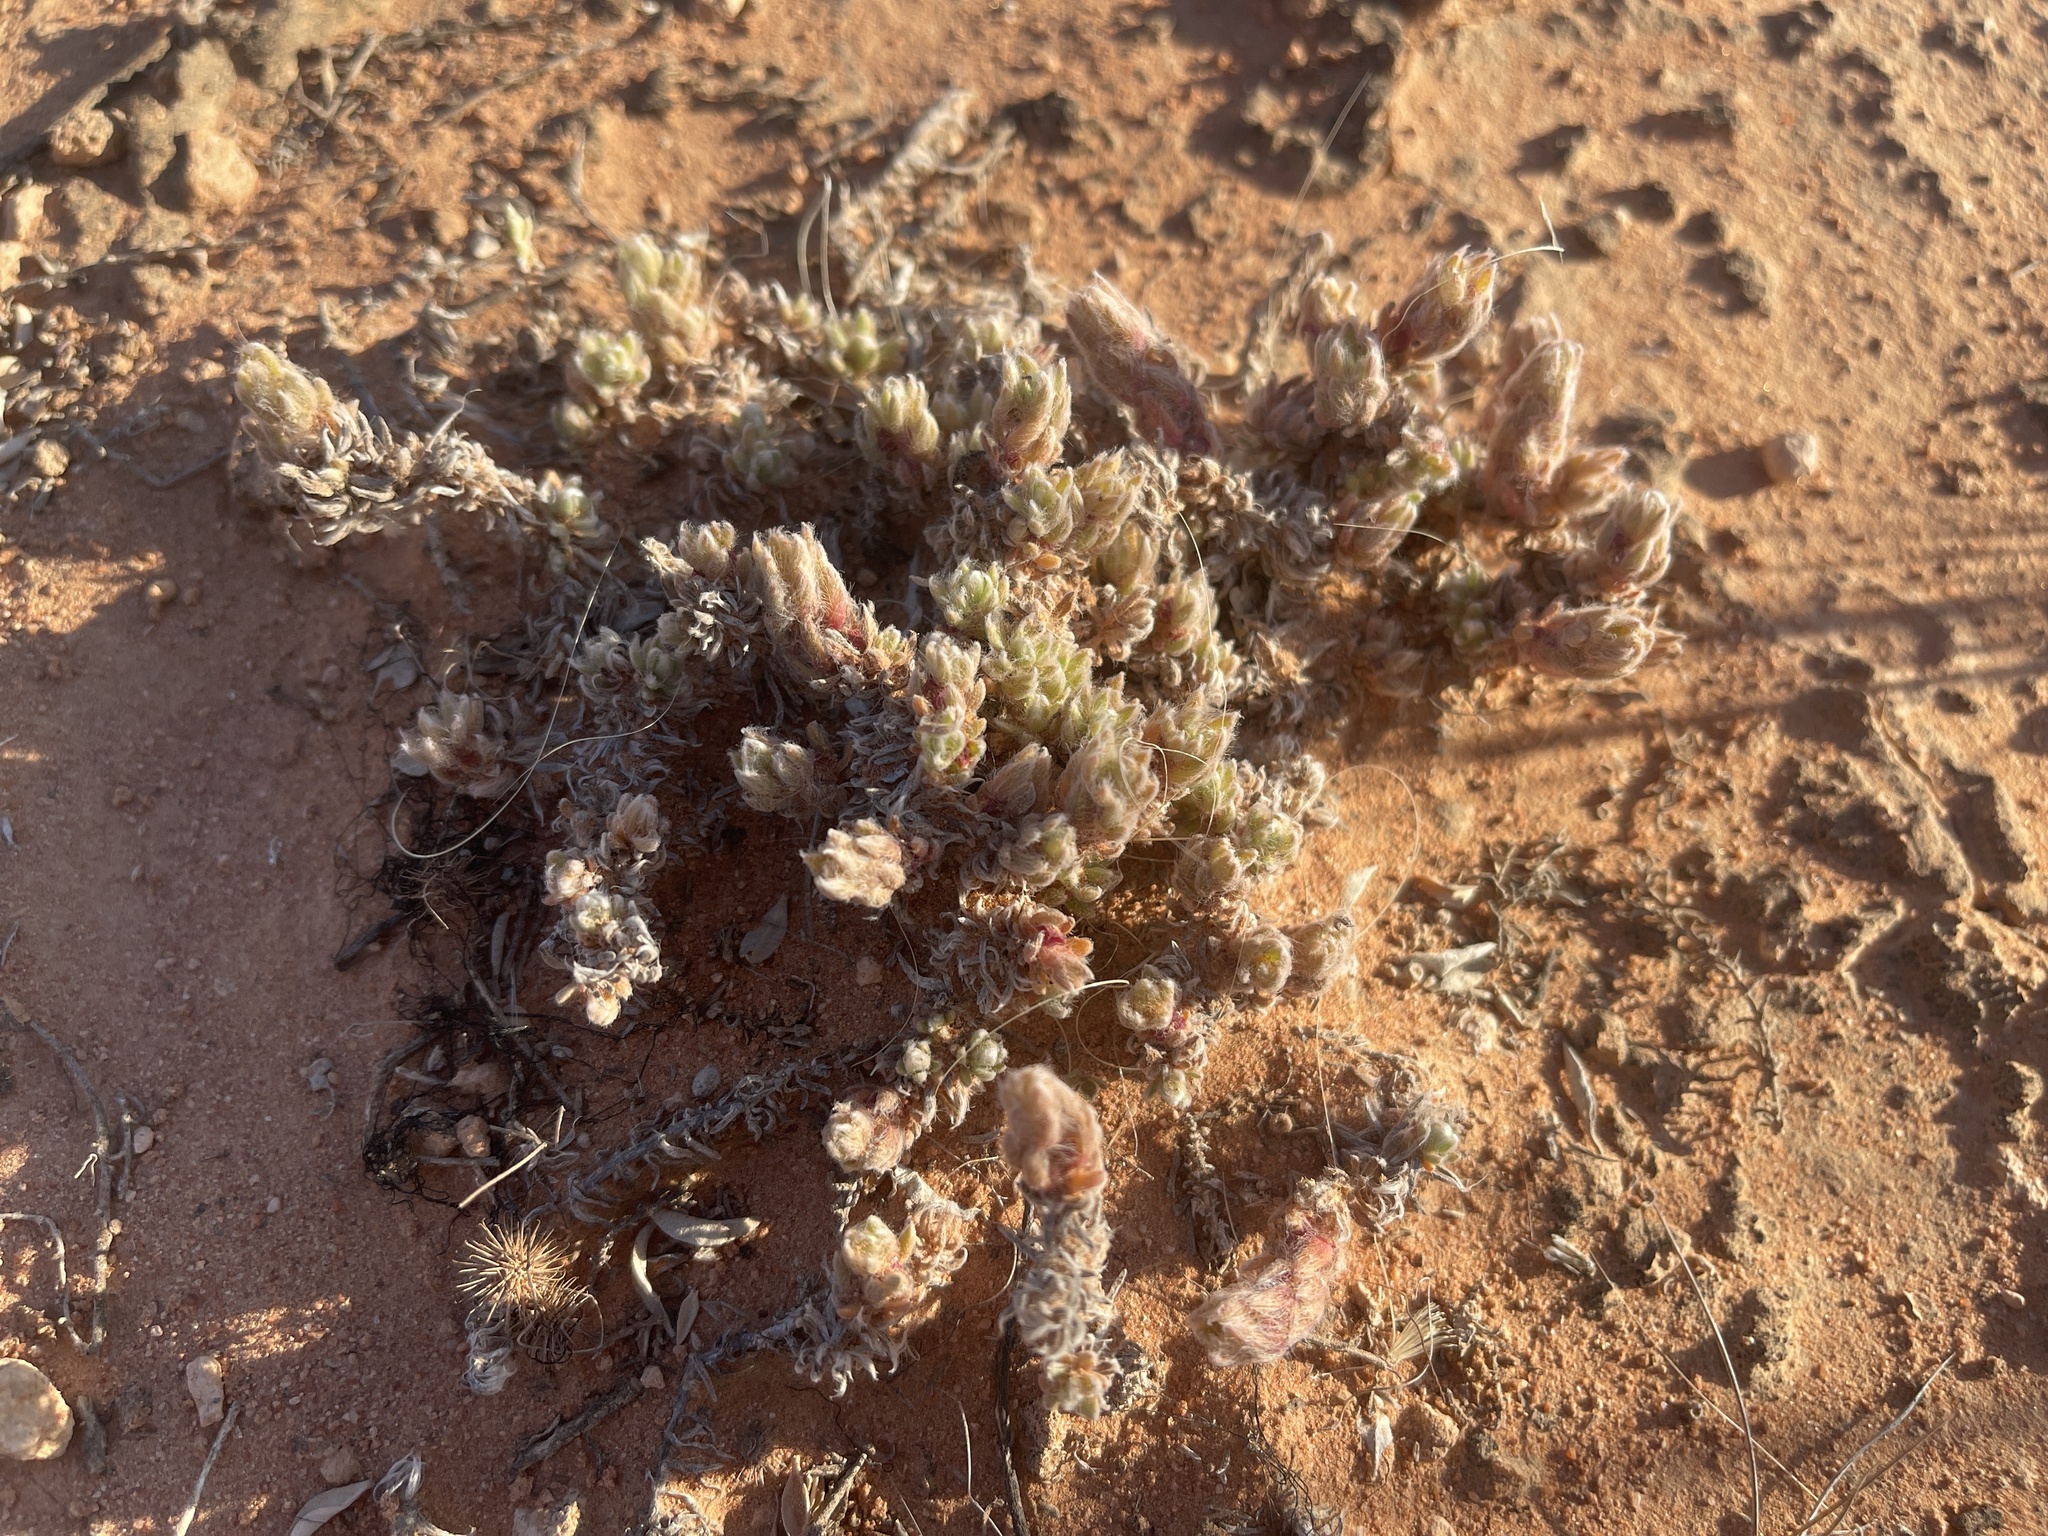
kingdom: Plantae
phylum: Tracheophyta
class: Magnoliopsida
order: Caryophyllales
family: Amaranthaceae
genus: Dissocarpus
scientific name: Dissocarpus paradoxus
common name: Bur-saltbush
